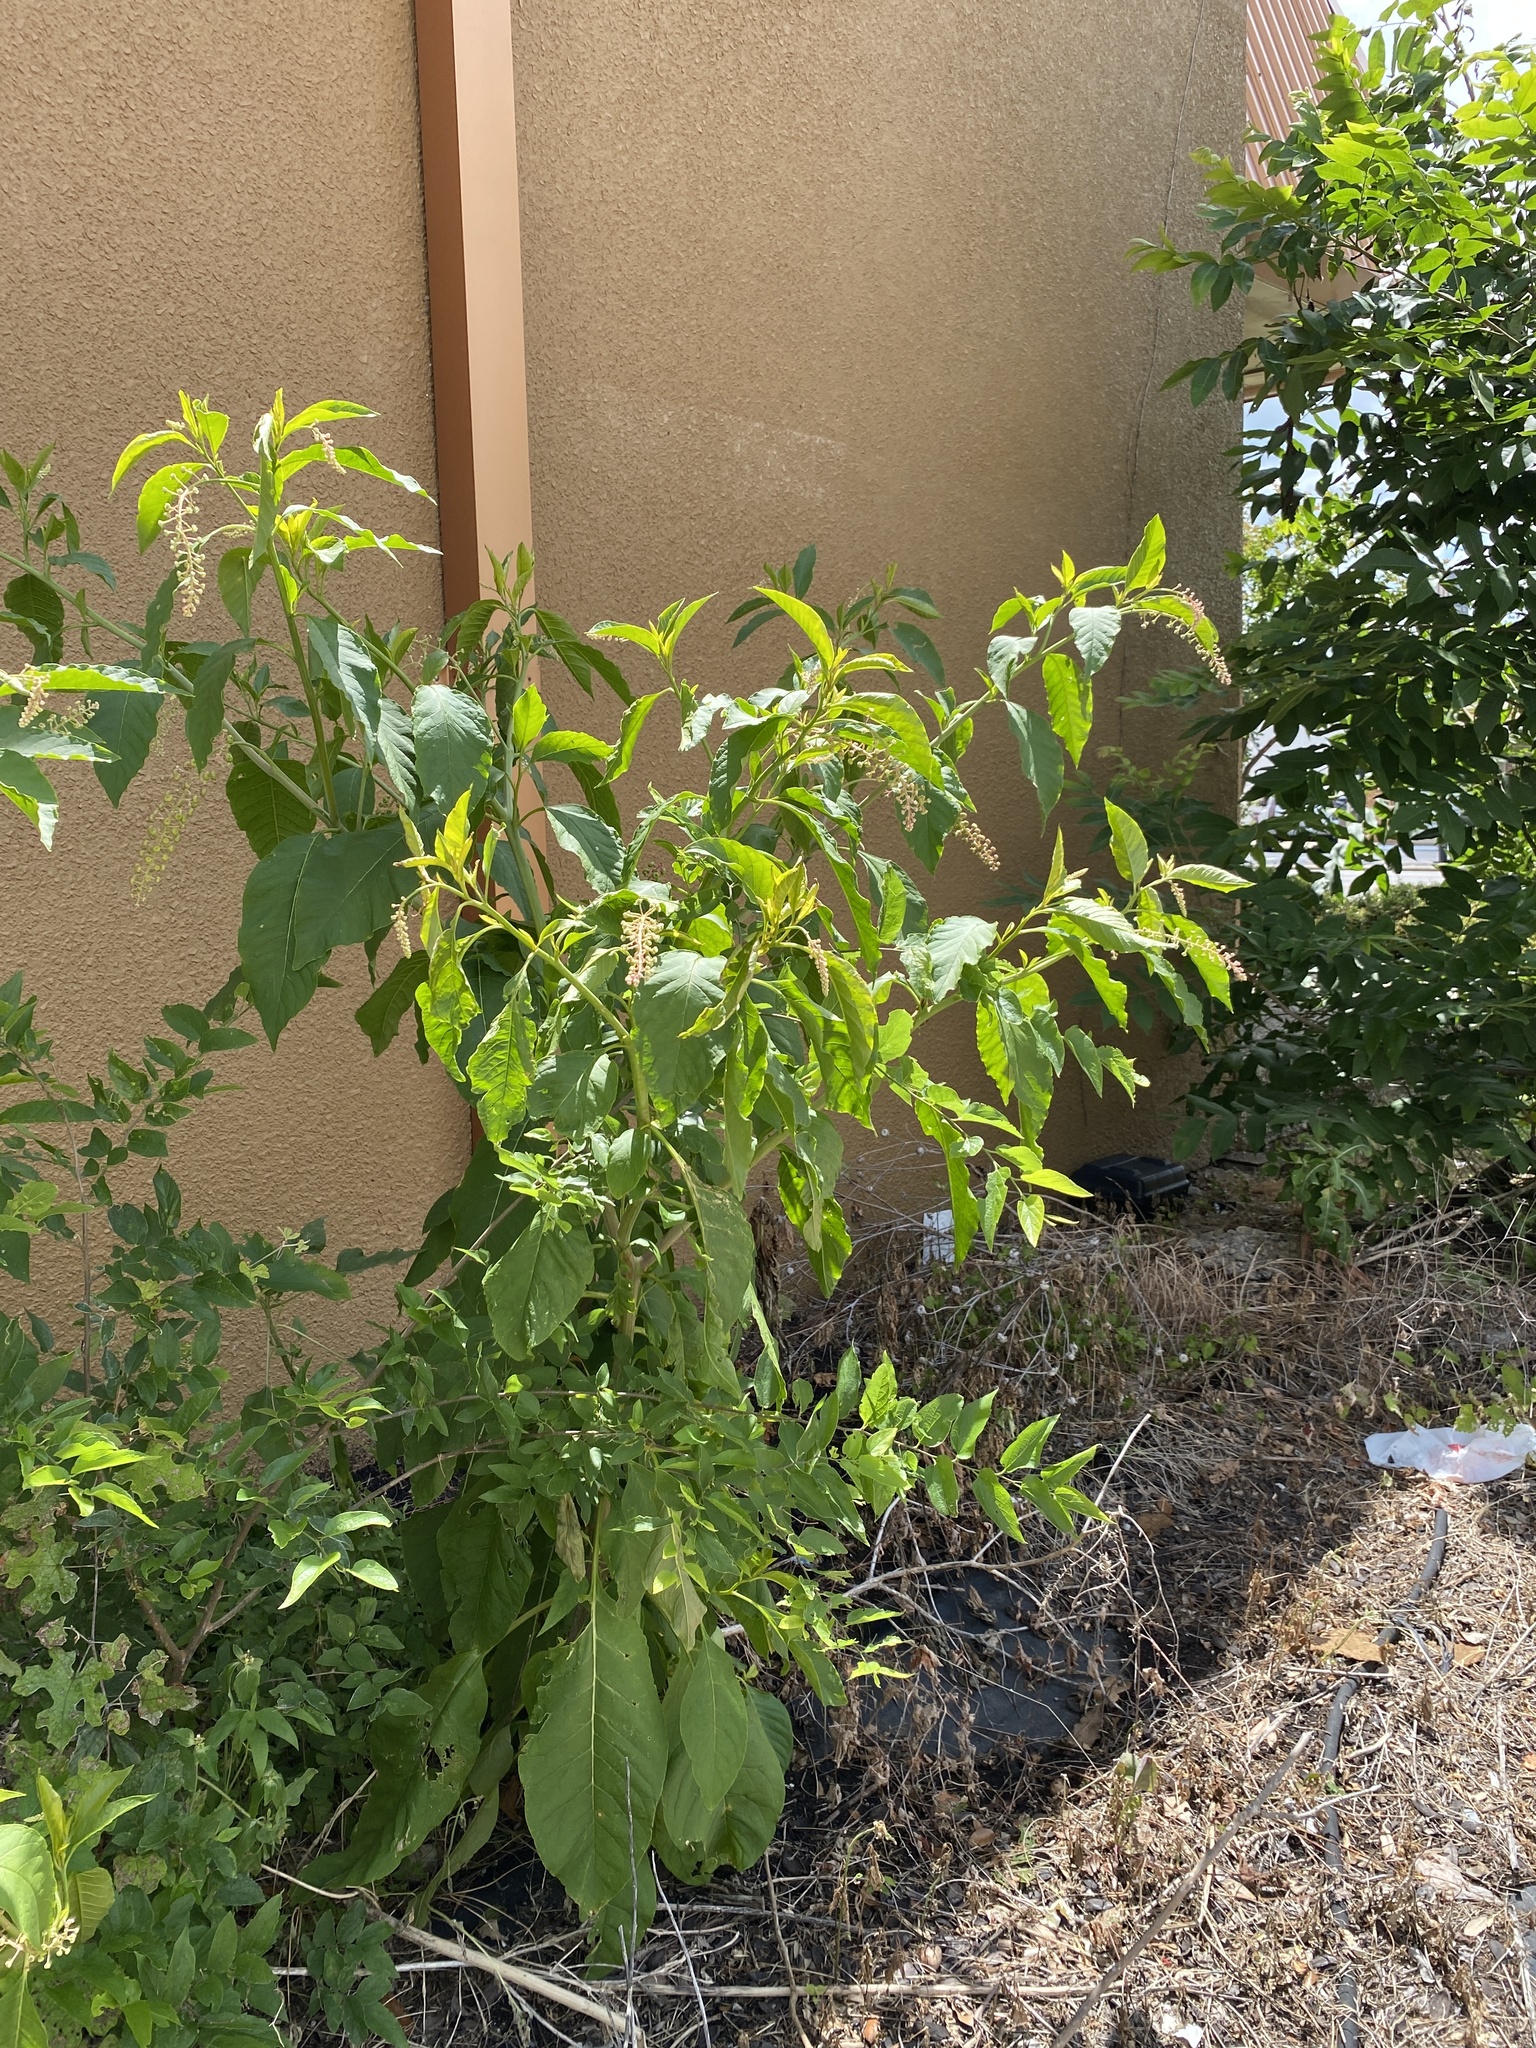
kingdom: Plantae
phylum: Tracheophyta
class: Magnoliopsida
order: Caryophyllales
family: Phytolaccaceae
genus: Phytolacca
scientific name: Phytolacca americana
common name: American pokeweed
